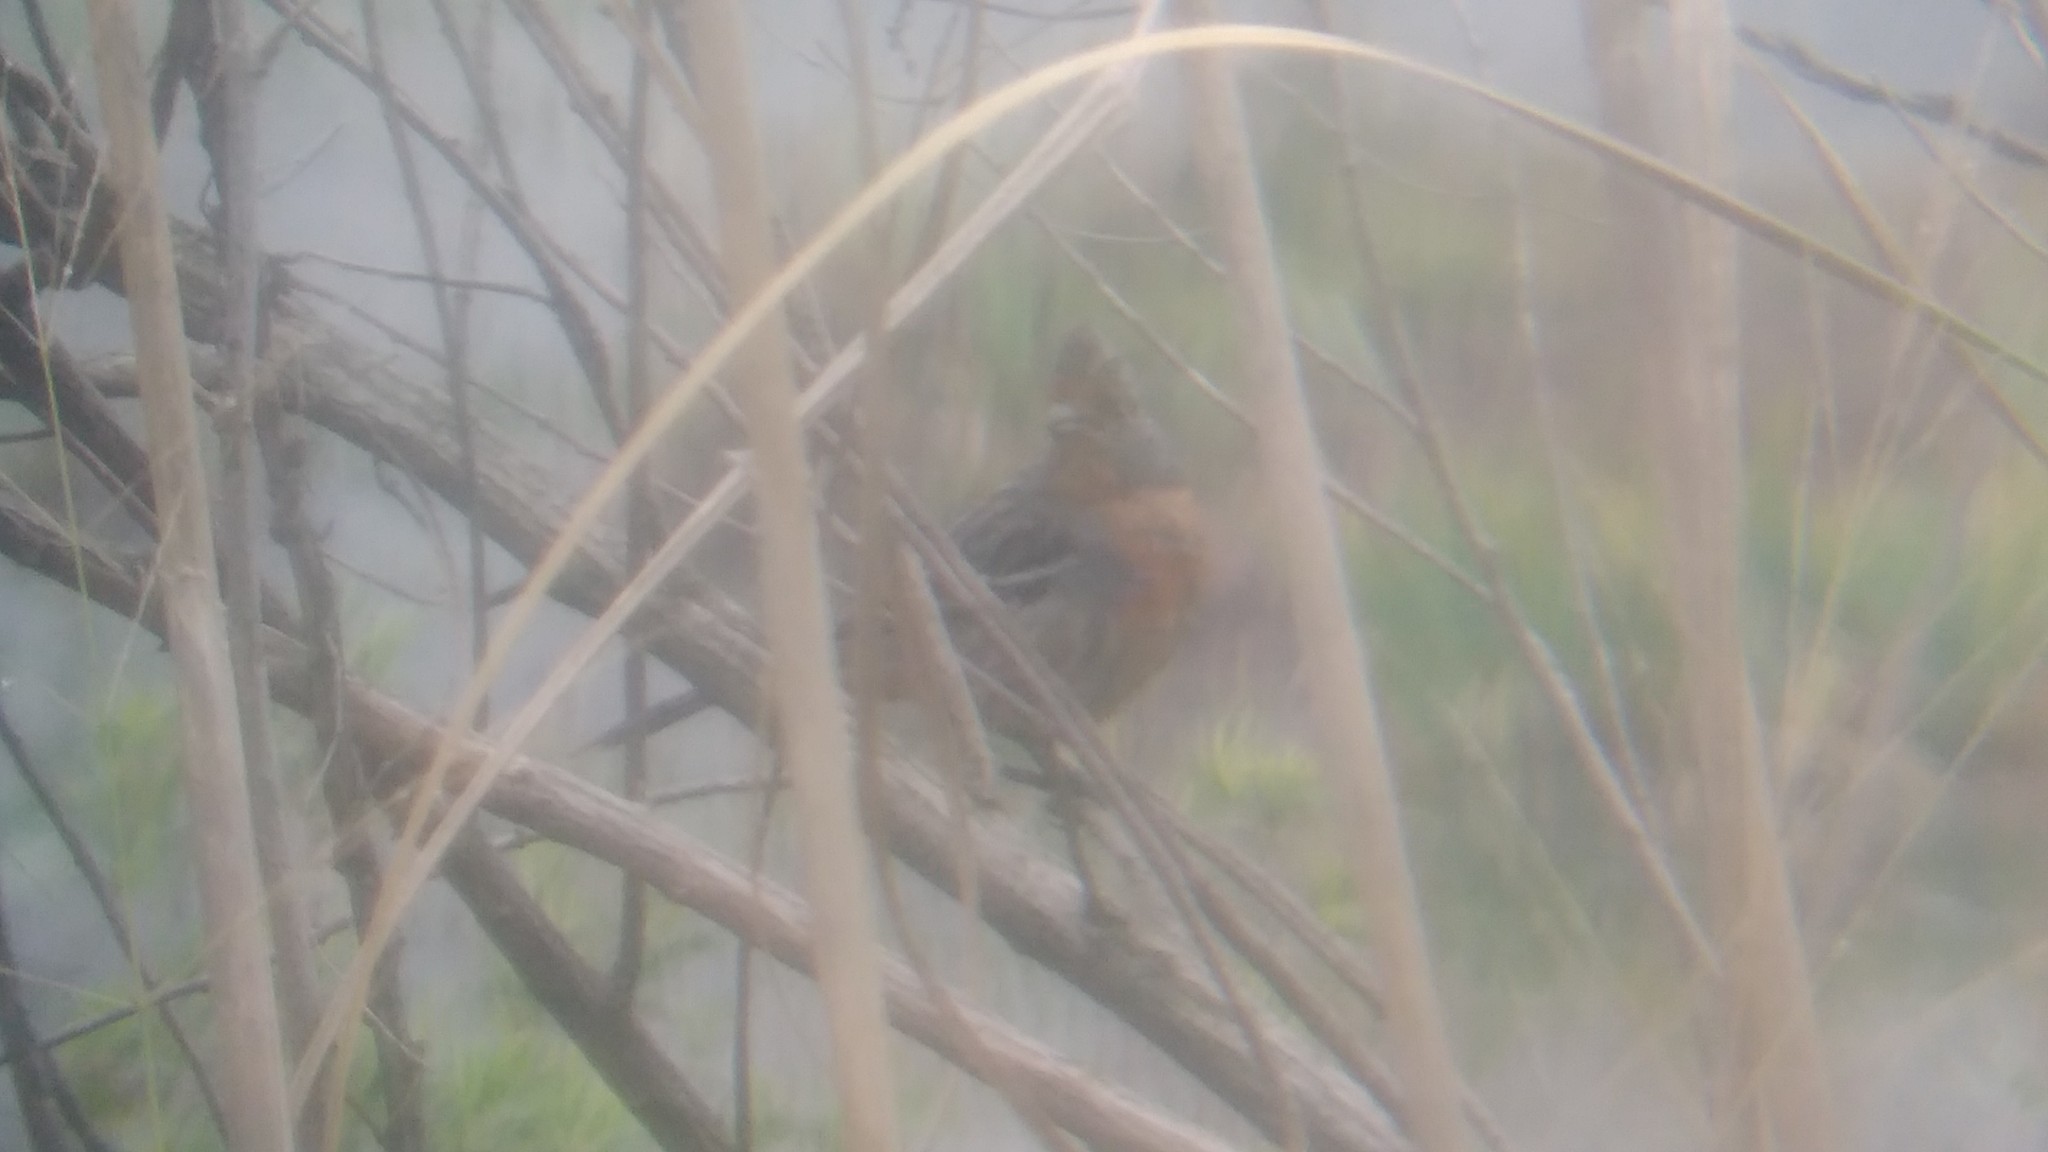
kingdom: Animalia
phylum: Chordata
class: Aves
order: Passeriformes
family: Cotingidae
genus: Phytotoma
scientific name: Phytotoma rutila
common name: White-tipped plantcutter
